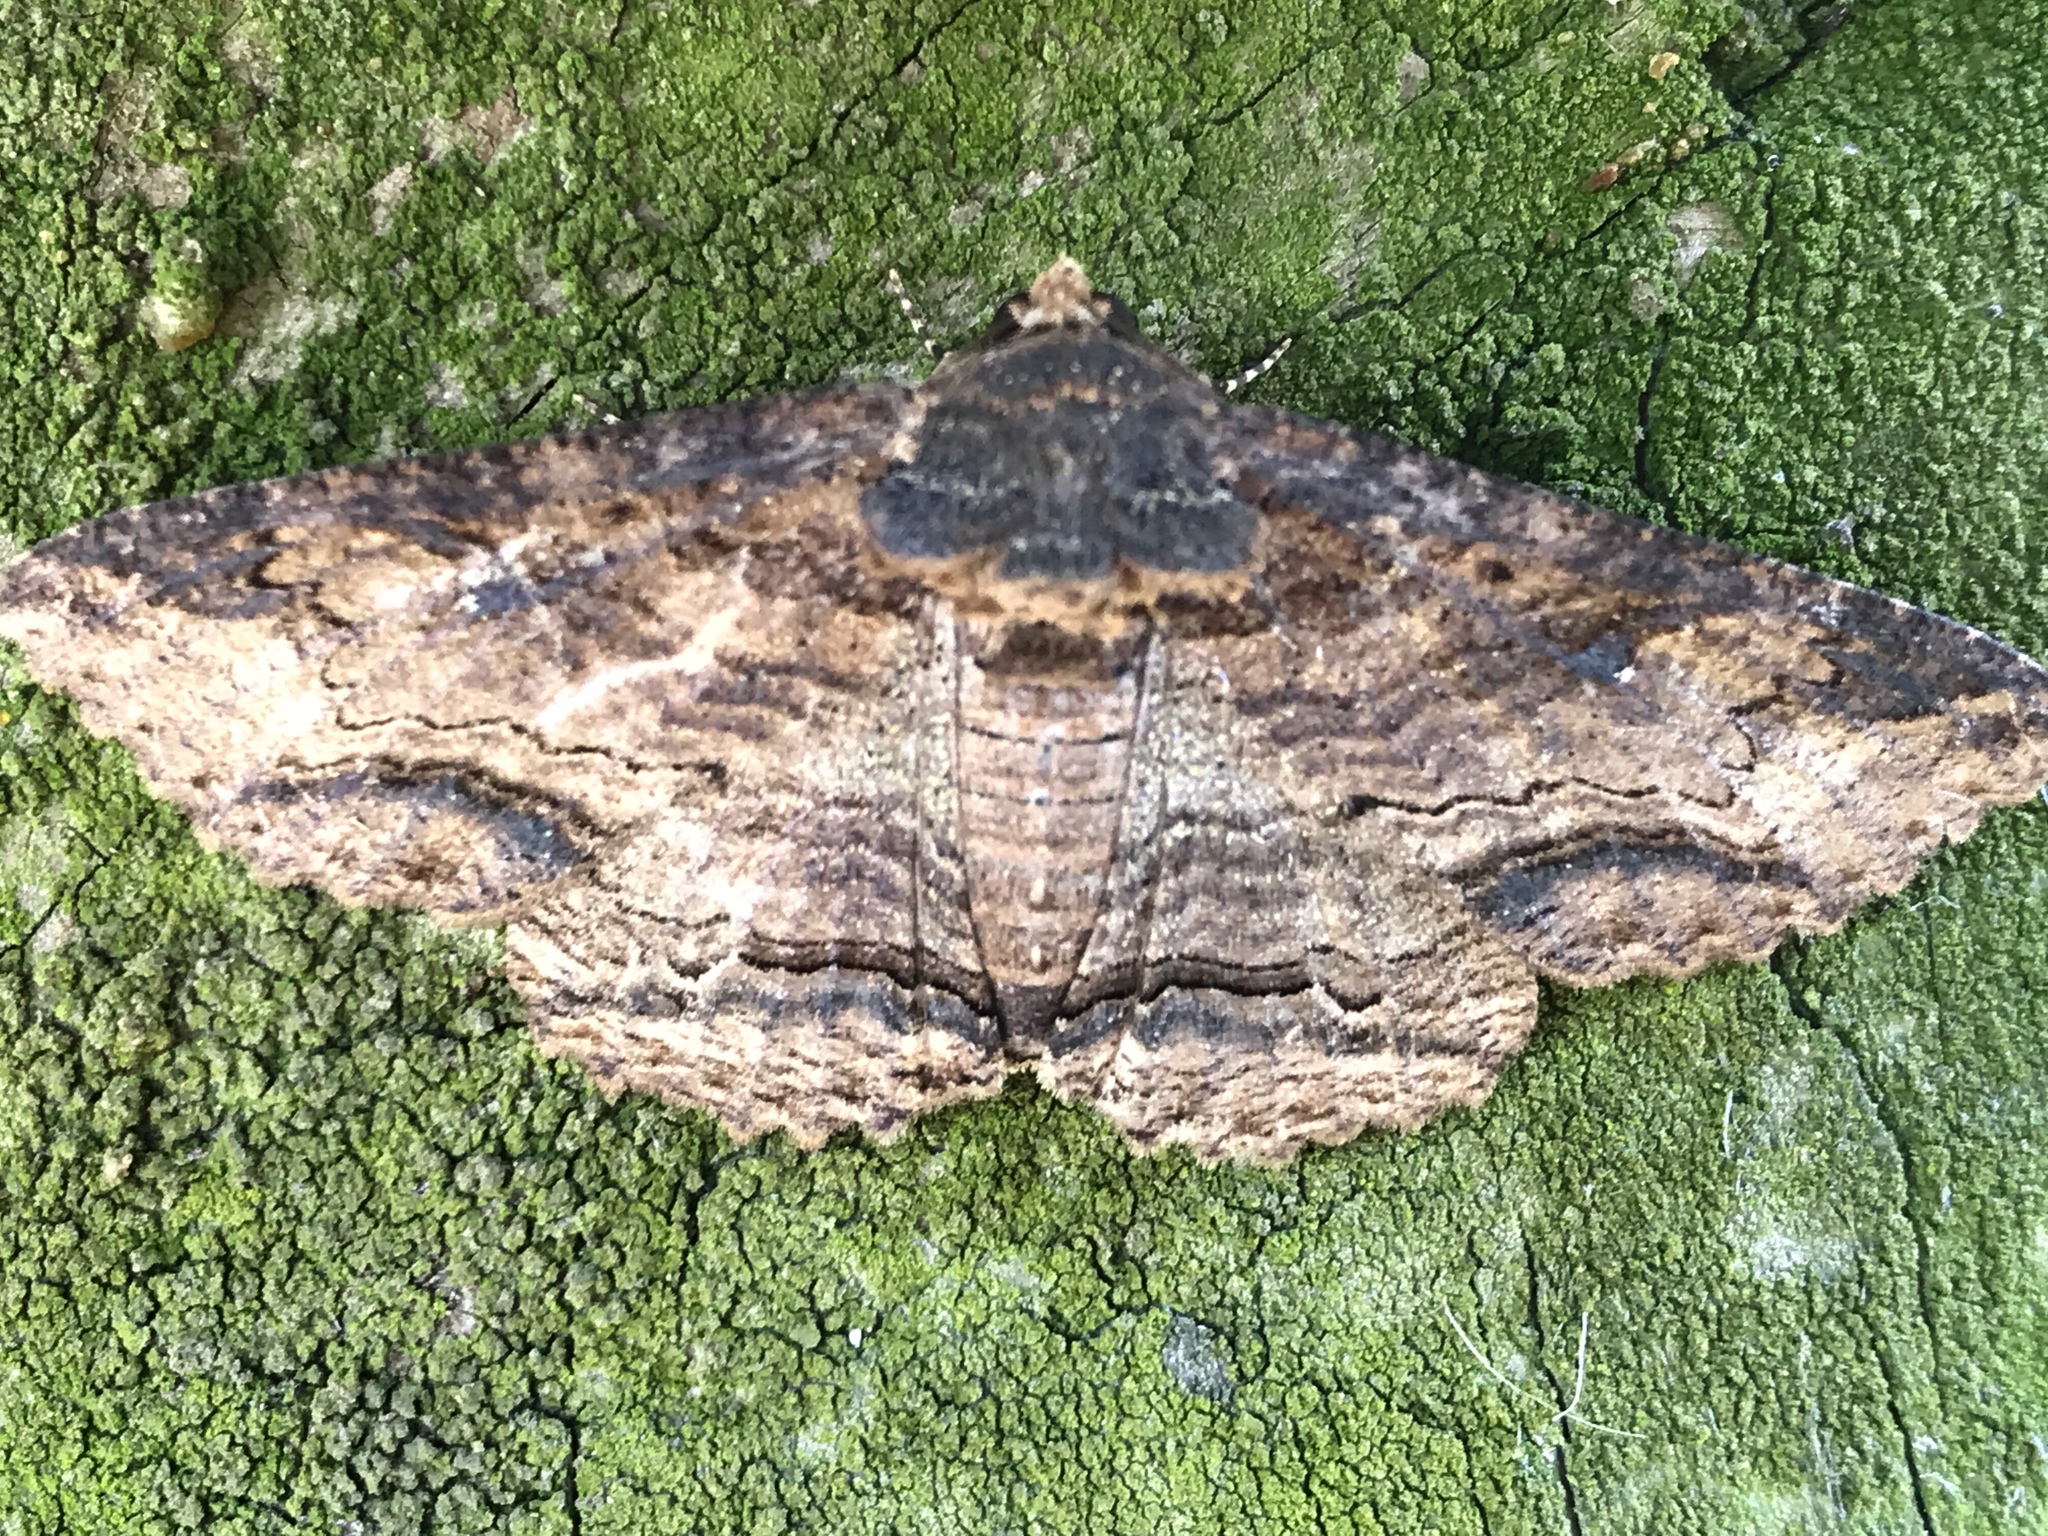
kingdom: Animalia
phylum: Arthropoda
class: Insecta
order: Lepidoptera
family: Erebidae
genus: Zale
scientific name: Zale lunata
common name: Lunate zale moth
